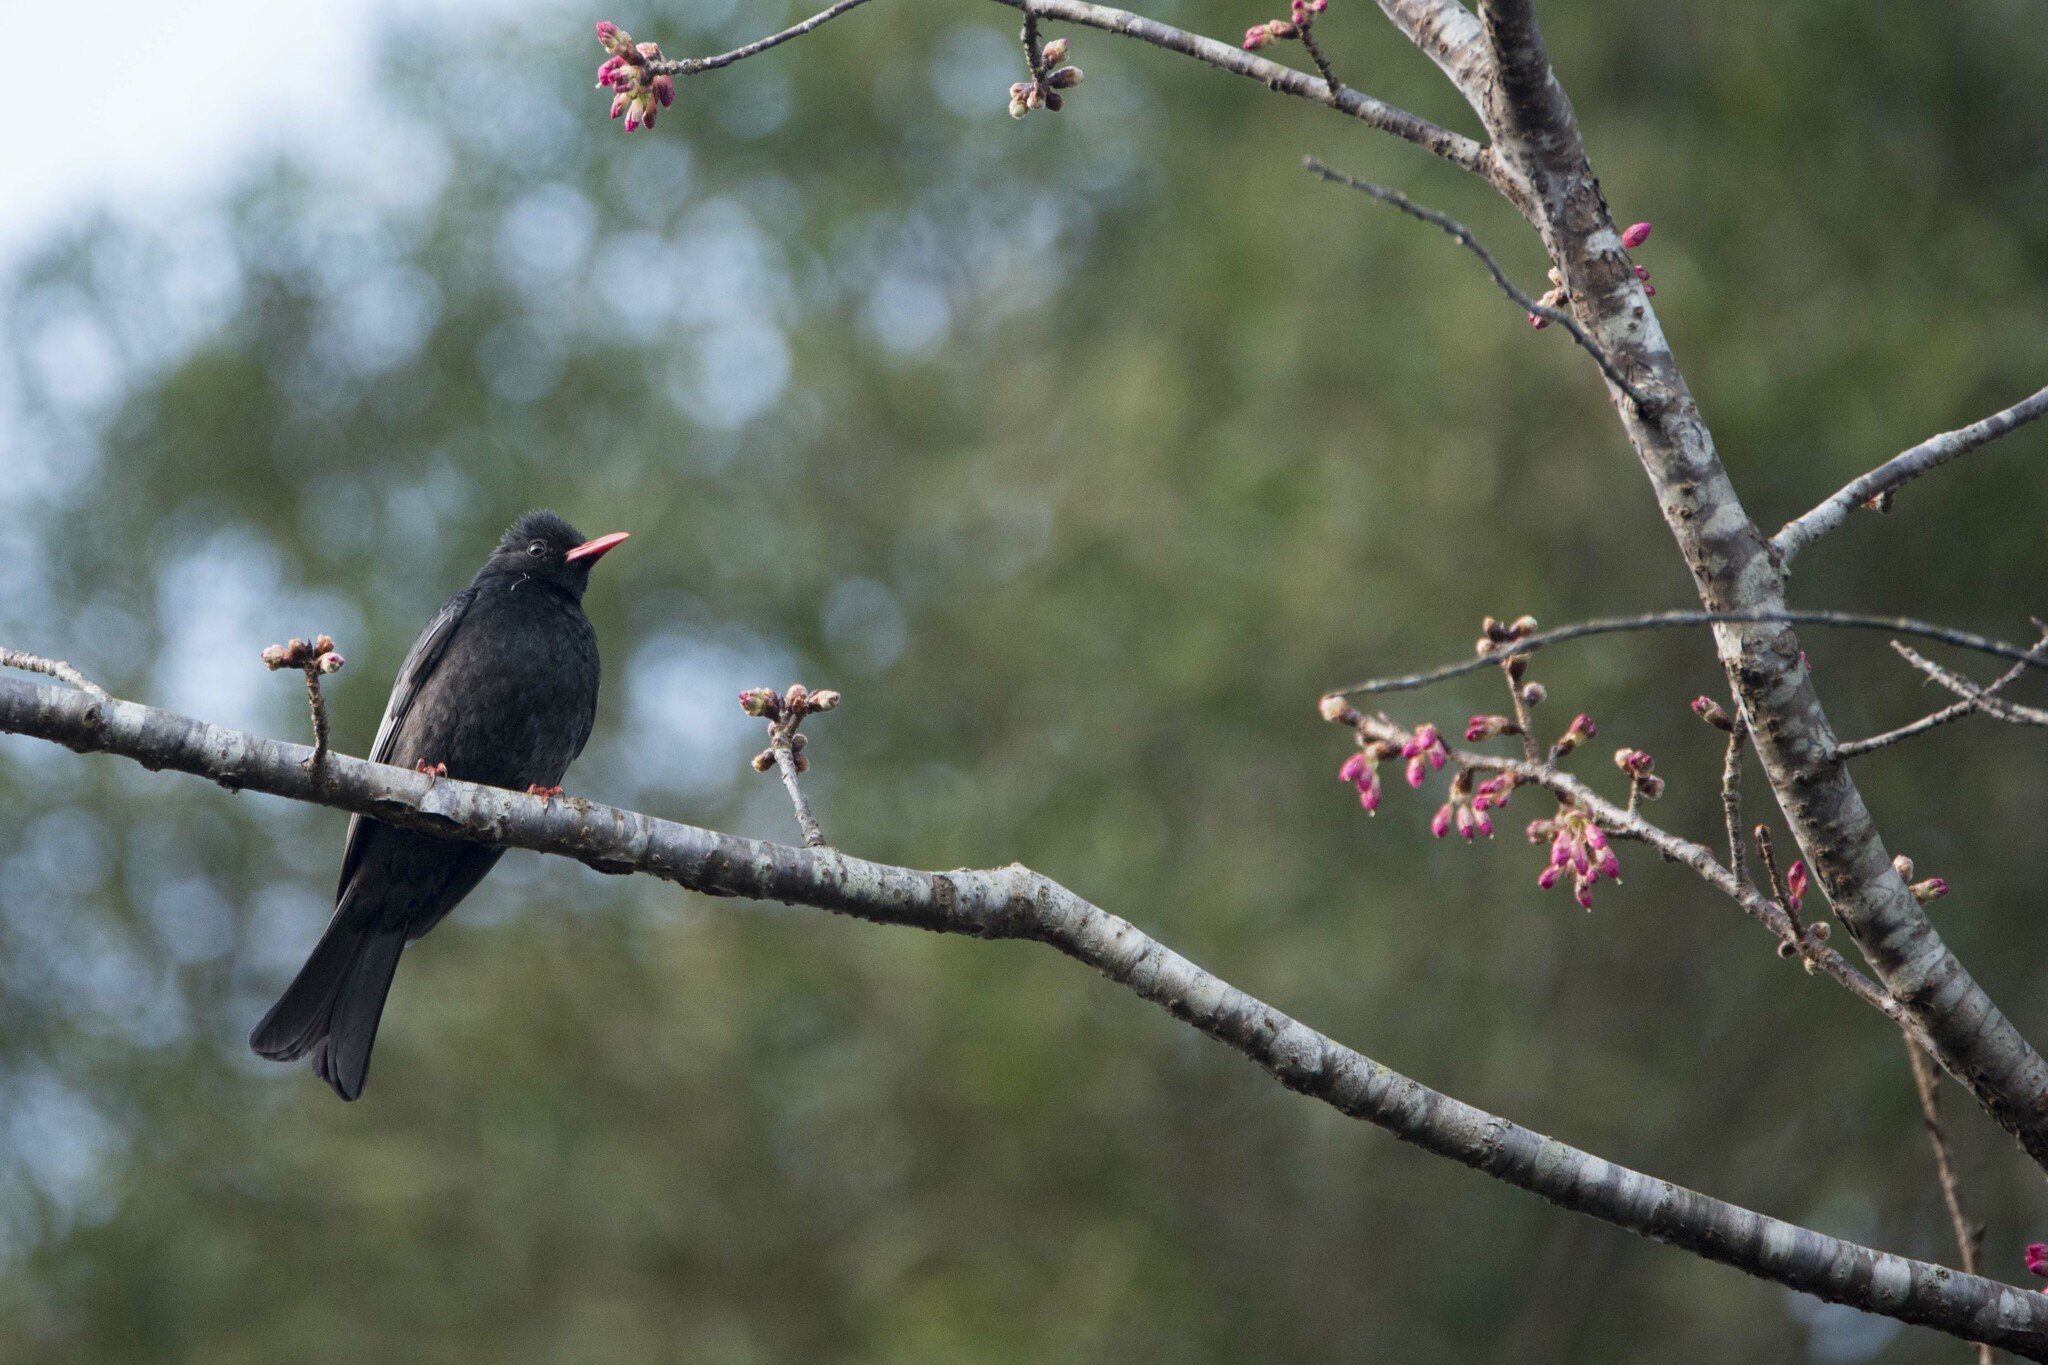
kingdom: Animalia
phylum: Chordata
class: Aves
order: Passeriformes
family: Pycnonotidae
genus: Hypsipetes
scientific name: Hypsipetes leucocephalus
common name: Black bulbul
